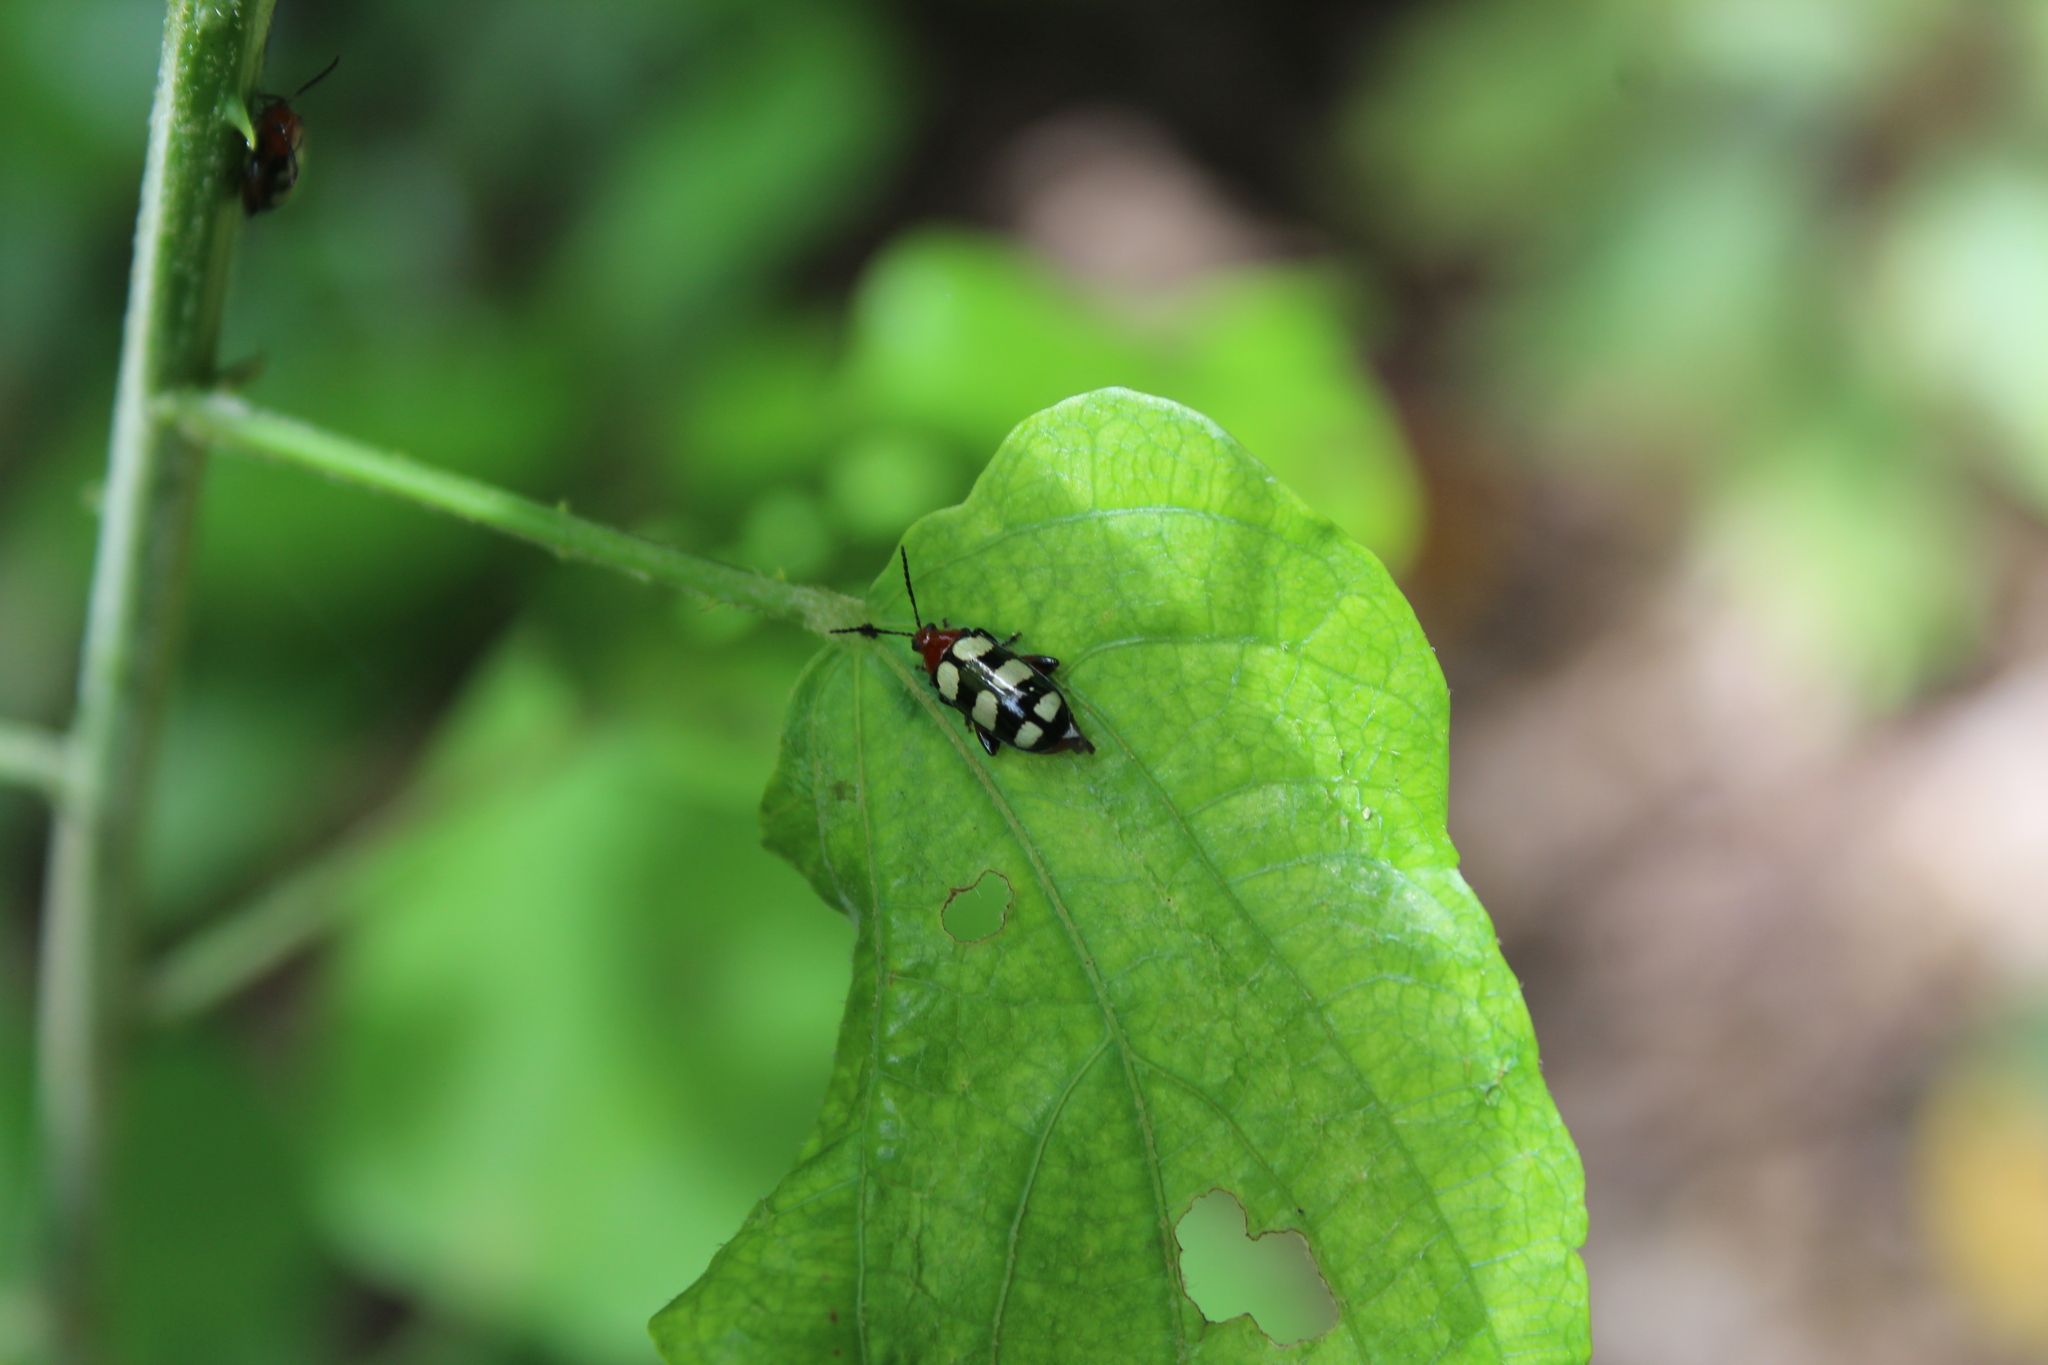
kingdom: Animalia
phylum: Arthropoda
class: Insecta
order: Coleoptera
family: Chrysomelidae
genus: Disonycha
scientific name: Disonycha
